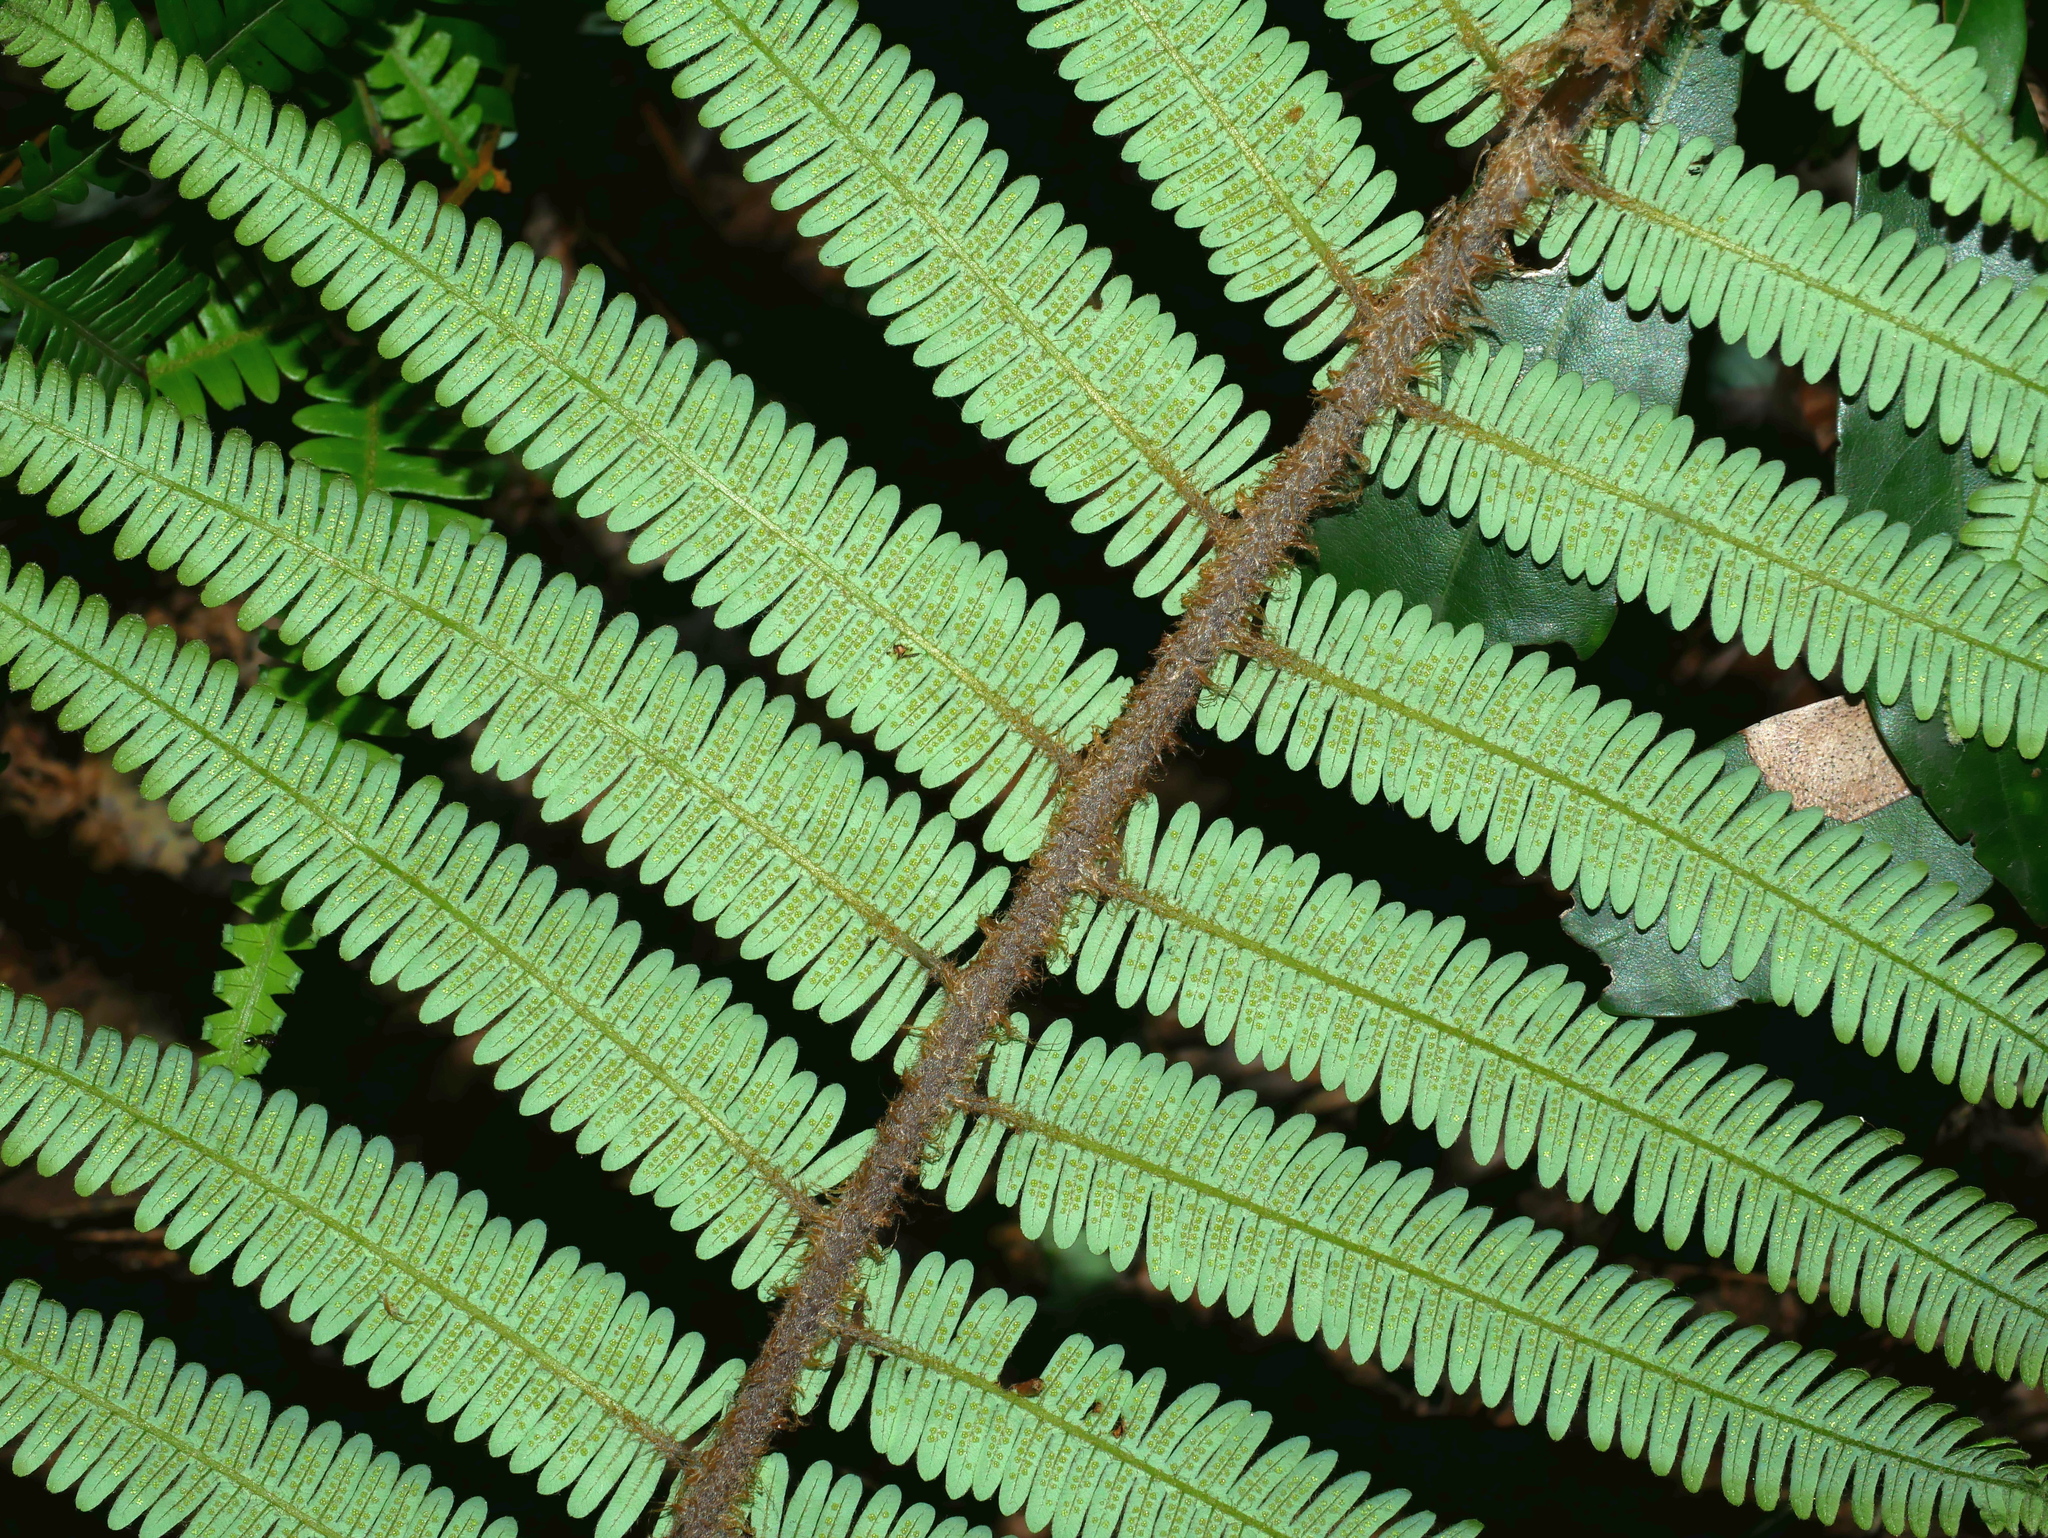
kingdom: Plantae
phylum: Tracheophyta
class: Polypodiopsida
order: Gleicheniales
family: Gleicheniaceae
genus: Diplopterygium
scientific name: Diplopterygium chinense
